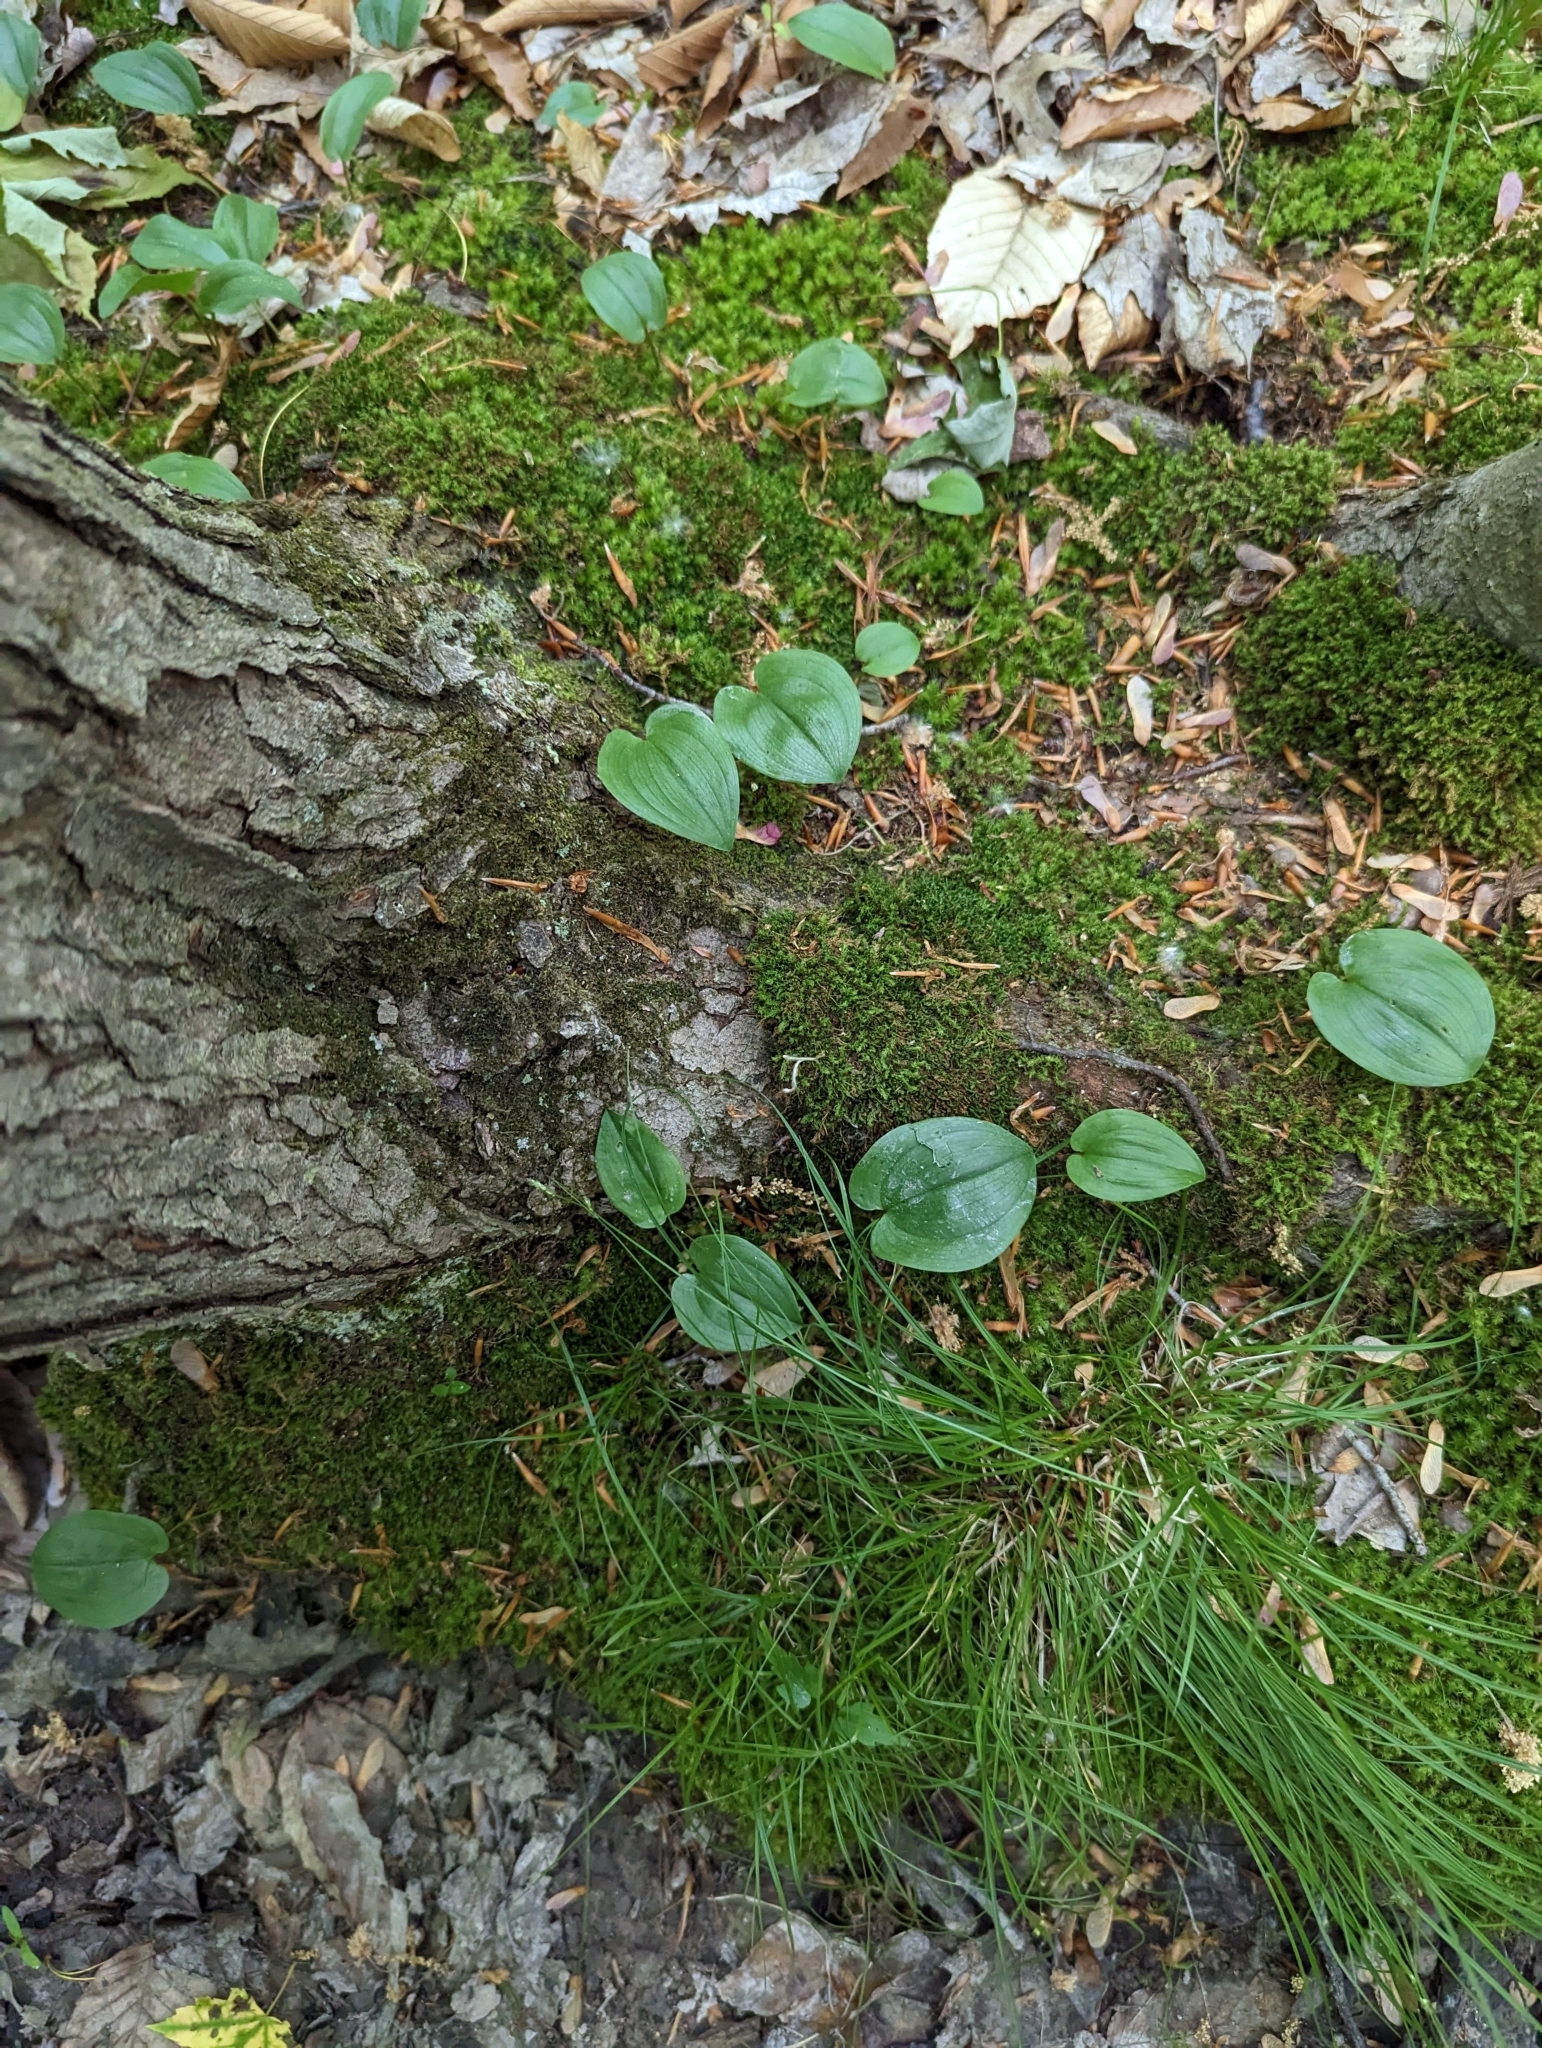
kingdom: Plantae
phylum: Tracheophyta
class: Liliopsida
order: Asparagales
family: Asparagaceae
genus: Maianthemum
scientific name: Maianthemum canadense
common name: False lily-of-the-valley
